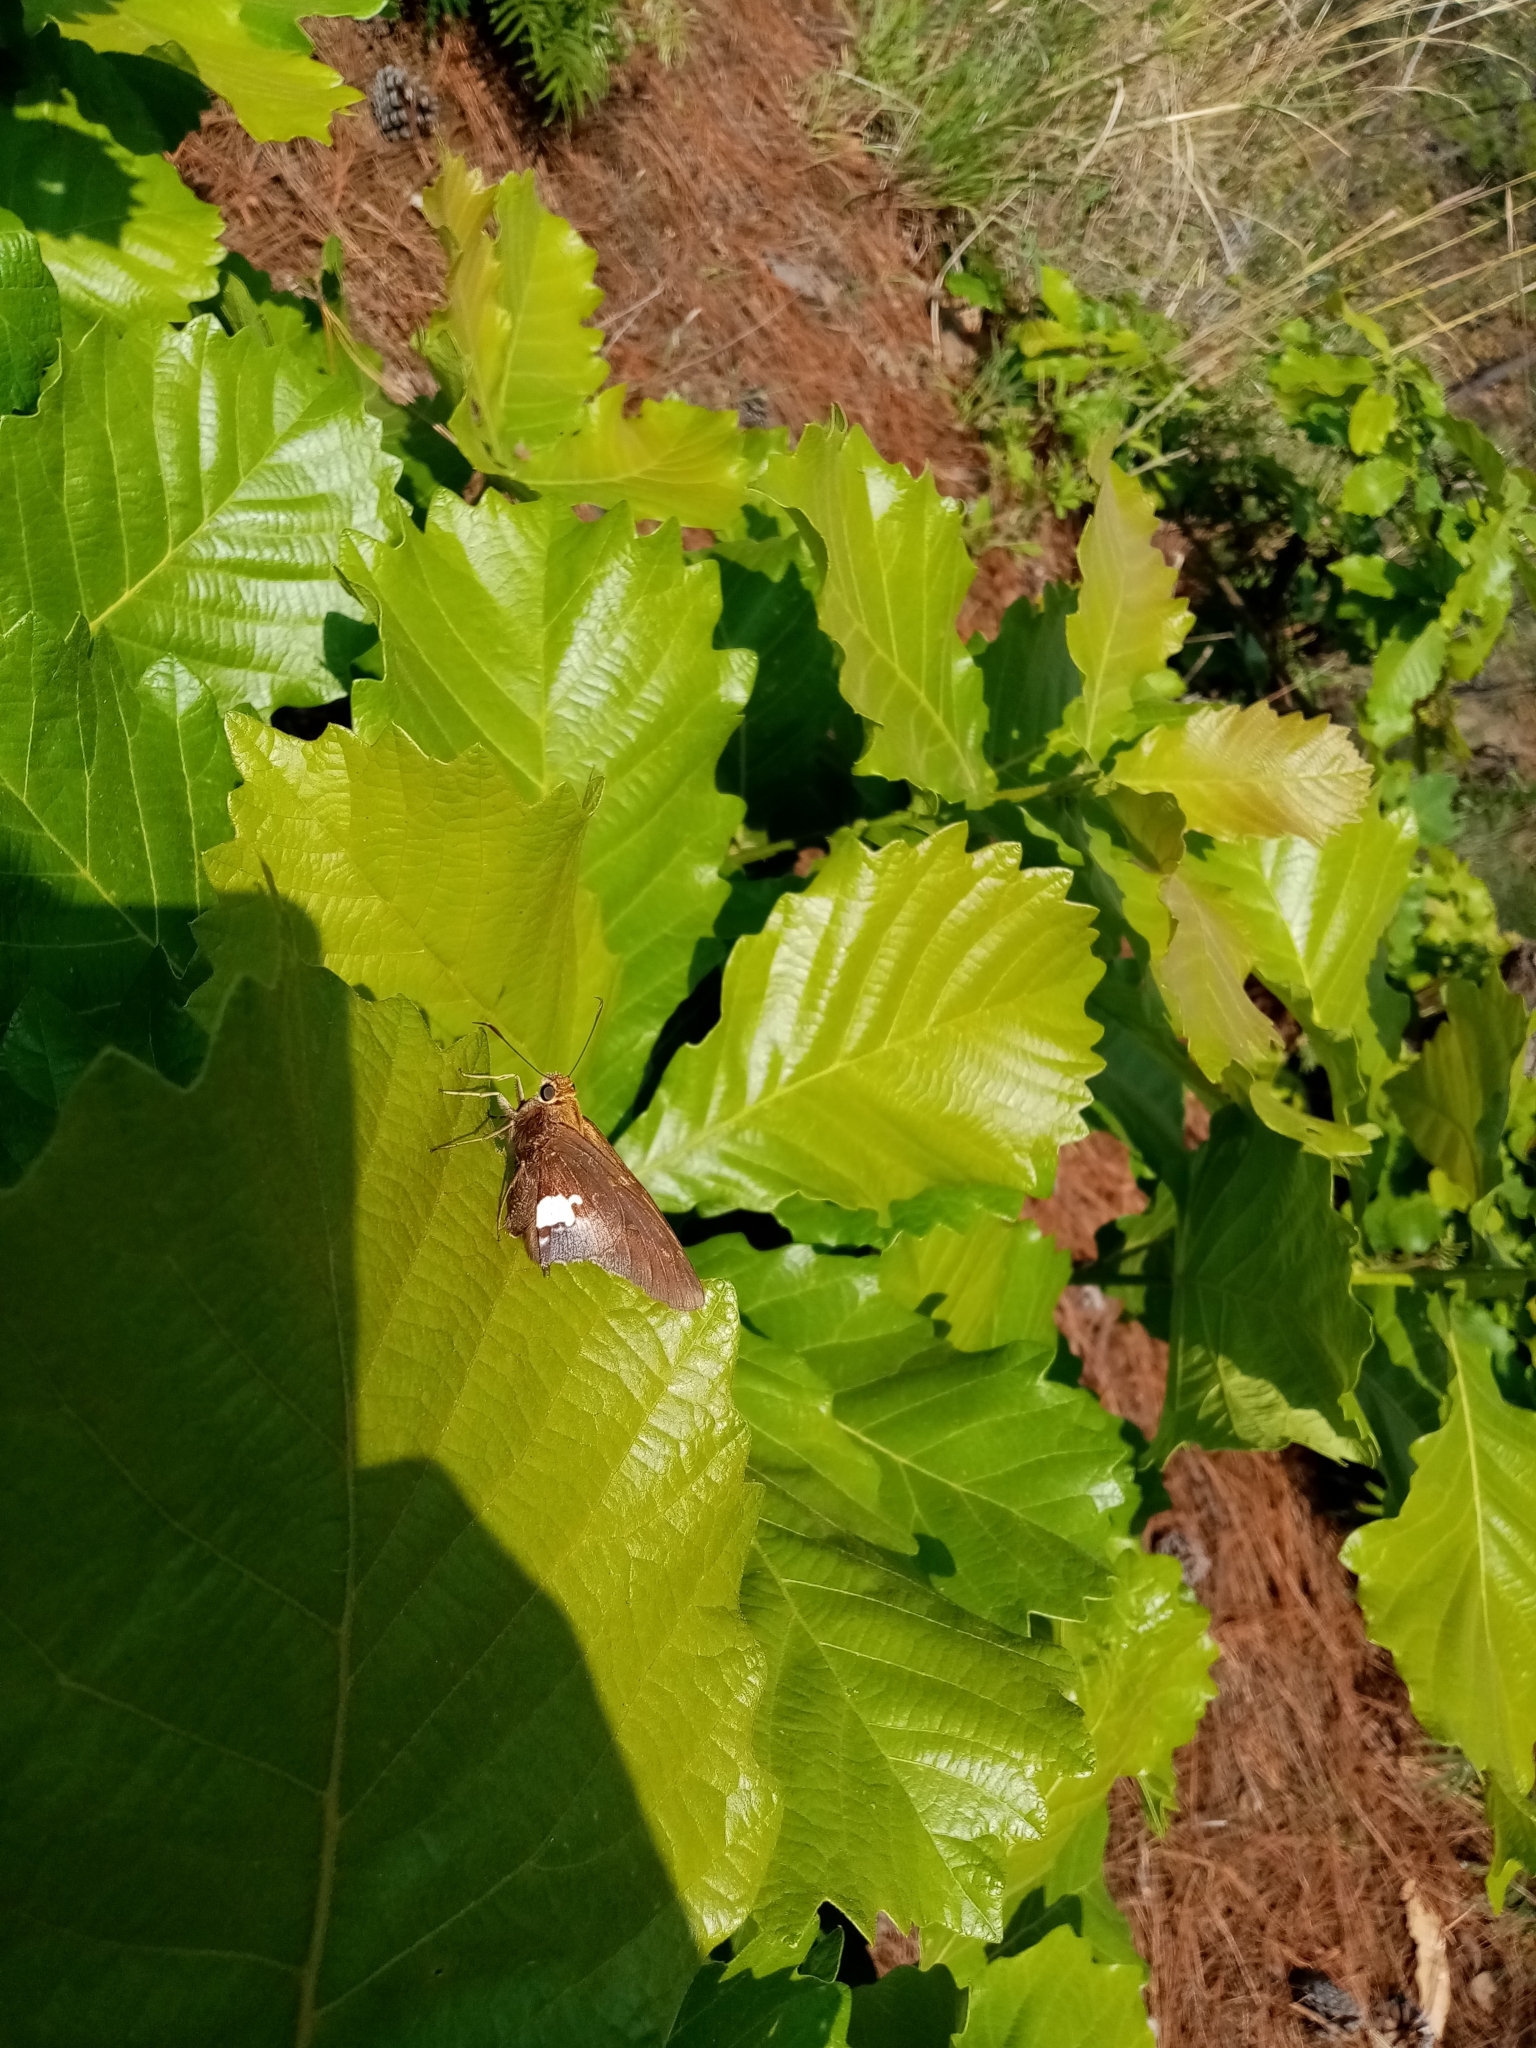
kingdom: Animalia
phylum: Arthropoda
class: Insecta
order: Lepidoptera
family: Hesperiidae
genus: Epargyreus
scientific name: Epargyreus clarus
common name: Silver-spotted skipper
